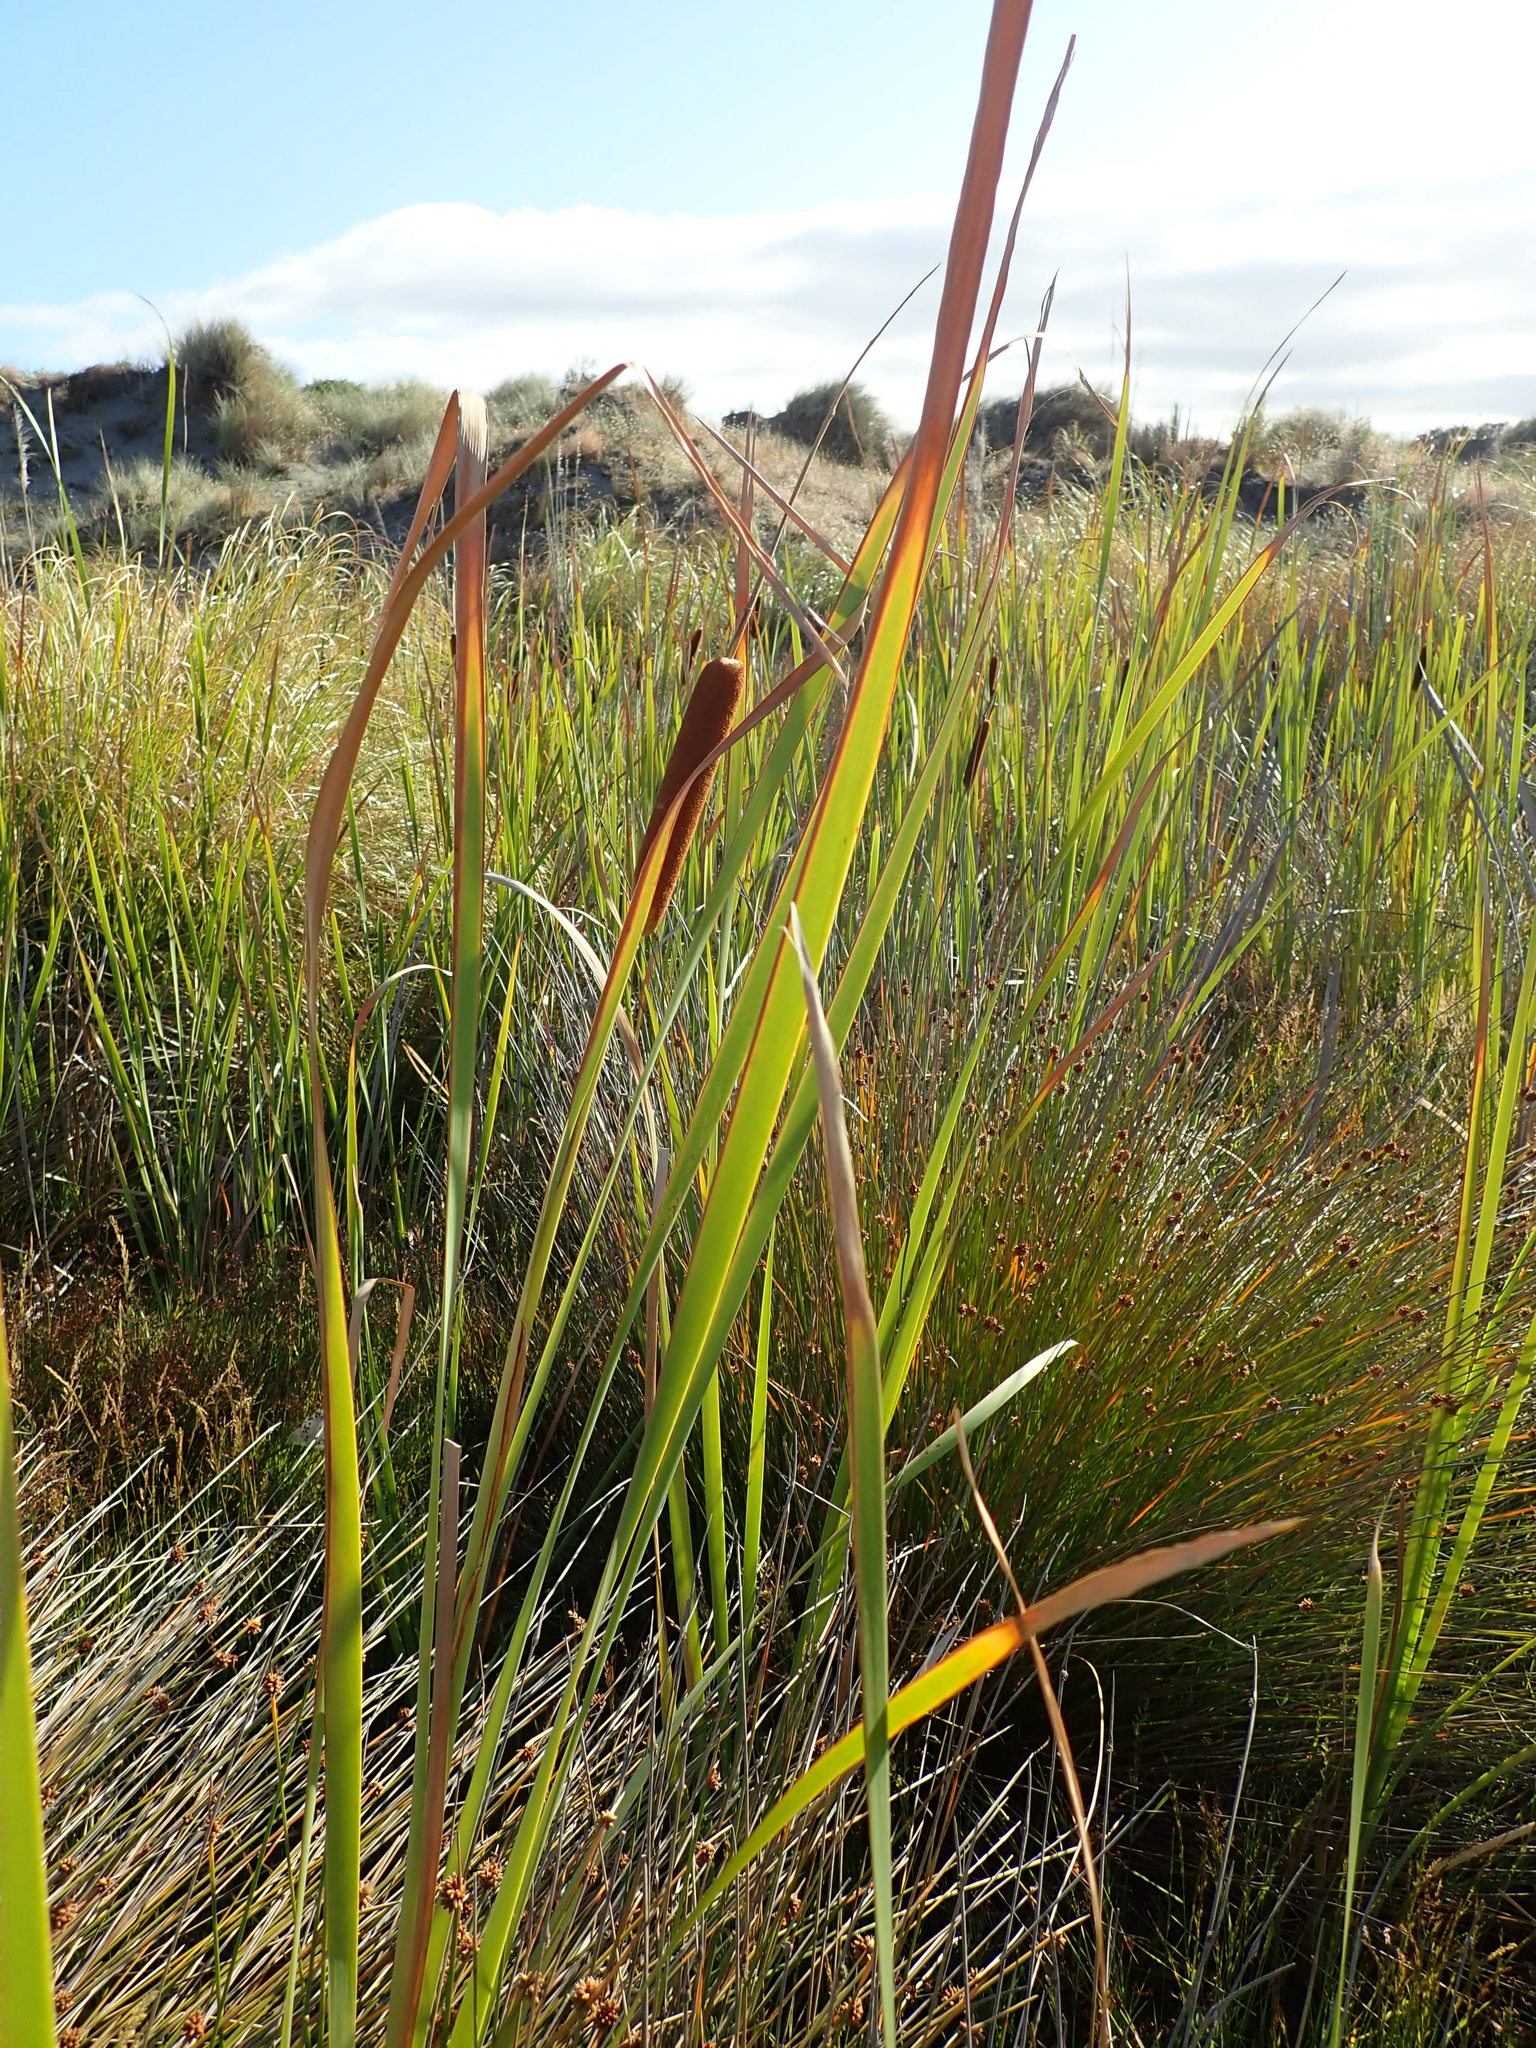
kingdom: Plantae
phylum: Tracheophyta
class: Liliopsida
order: Poales
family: Typhaceae
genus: Typha
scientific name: Typha orientalis
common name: Bullrush
